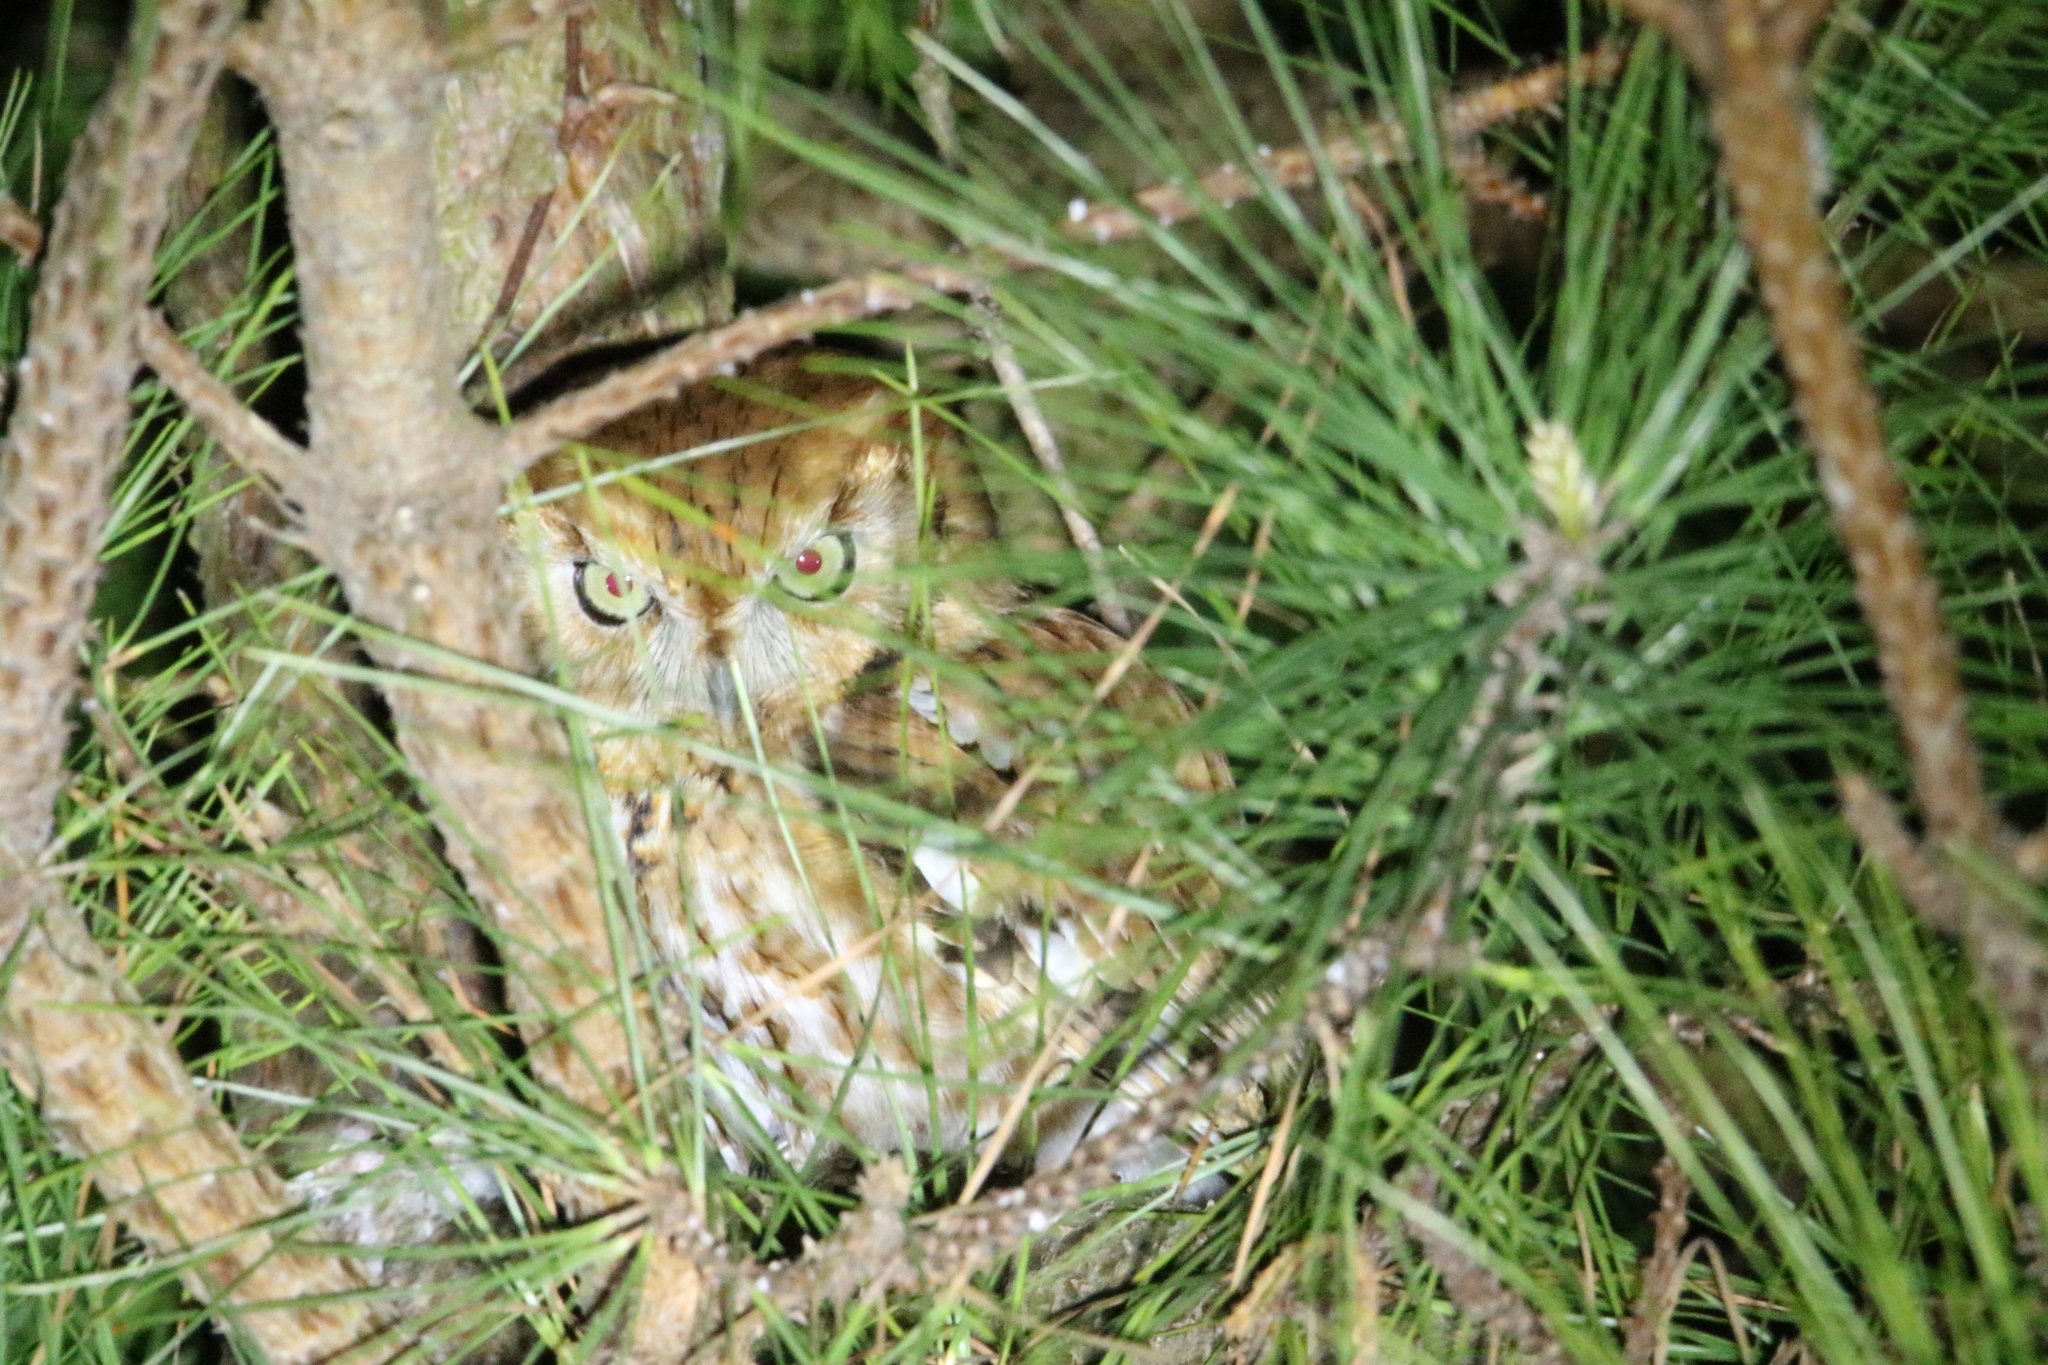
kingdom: Animalia
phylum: Chordata
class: Aves
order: Strigiformes
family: Strigidae
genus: Megascops
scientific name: Megascops asio
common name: Eastern screech-owl
